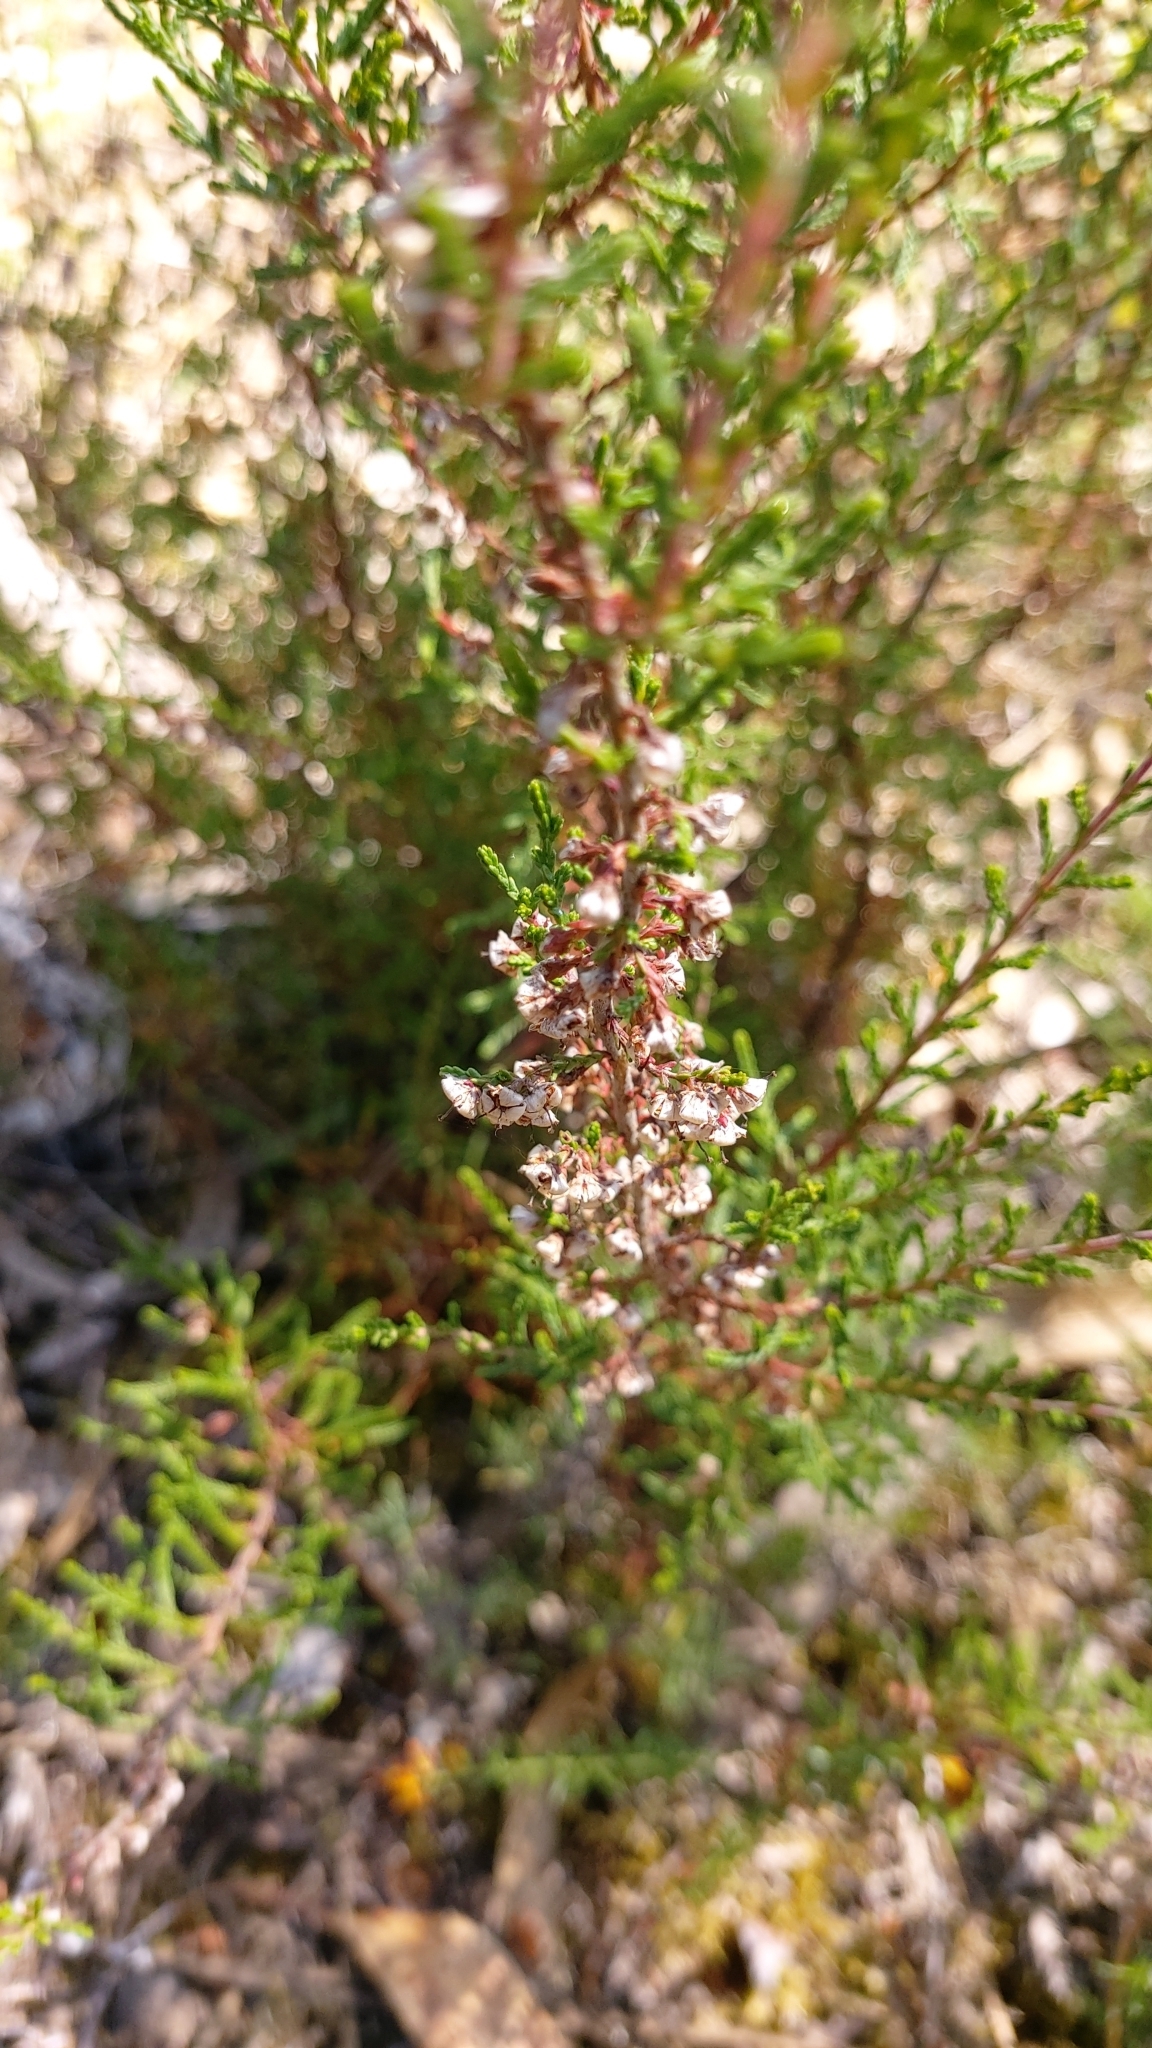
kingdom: Plantae
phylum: Tracheophyta
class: Magnoliopsida
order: Ericales
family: Ericaceae
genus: Calluna
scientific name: Calluna vulgaris
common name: Heather
